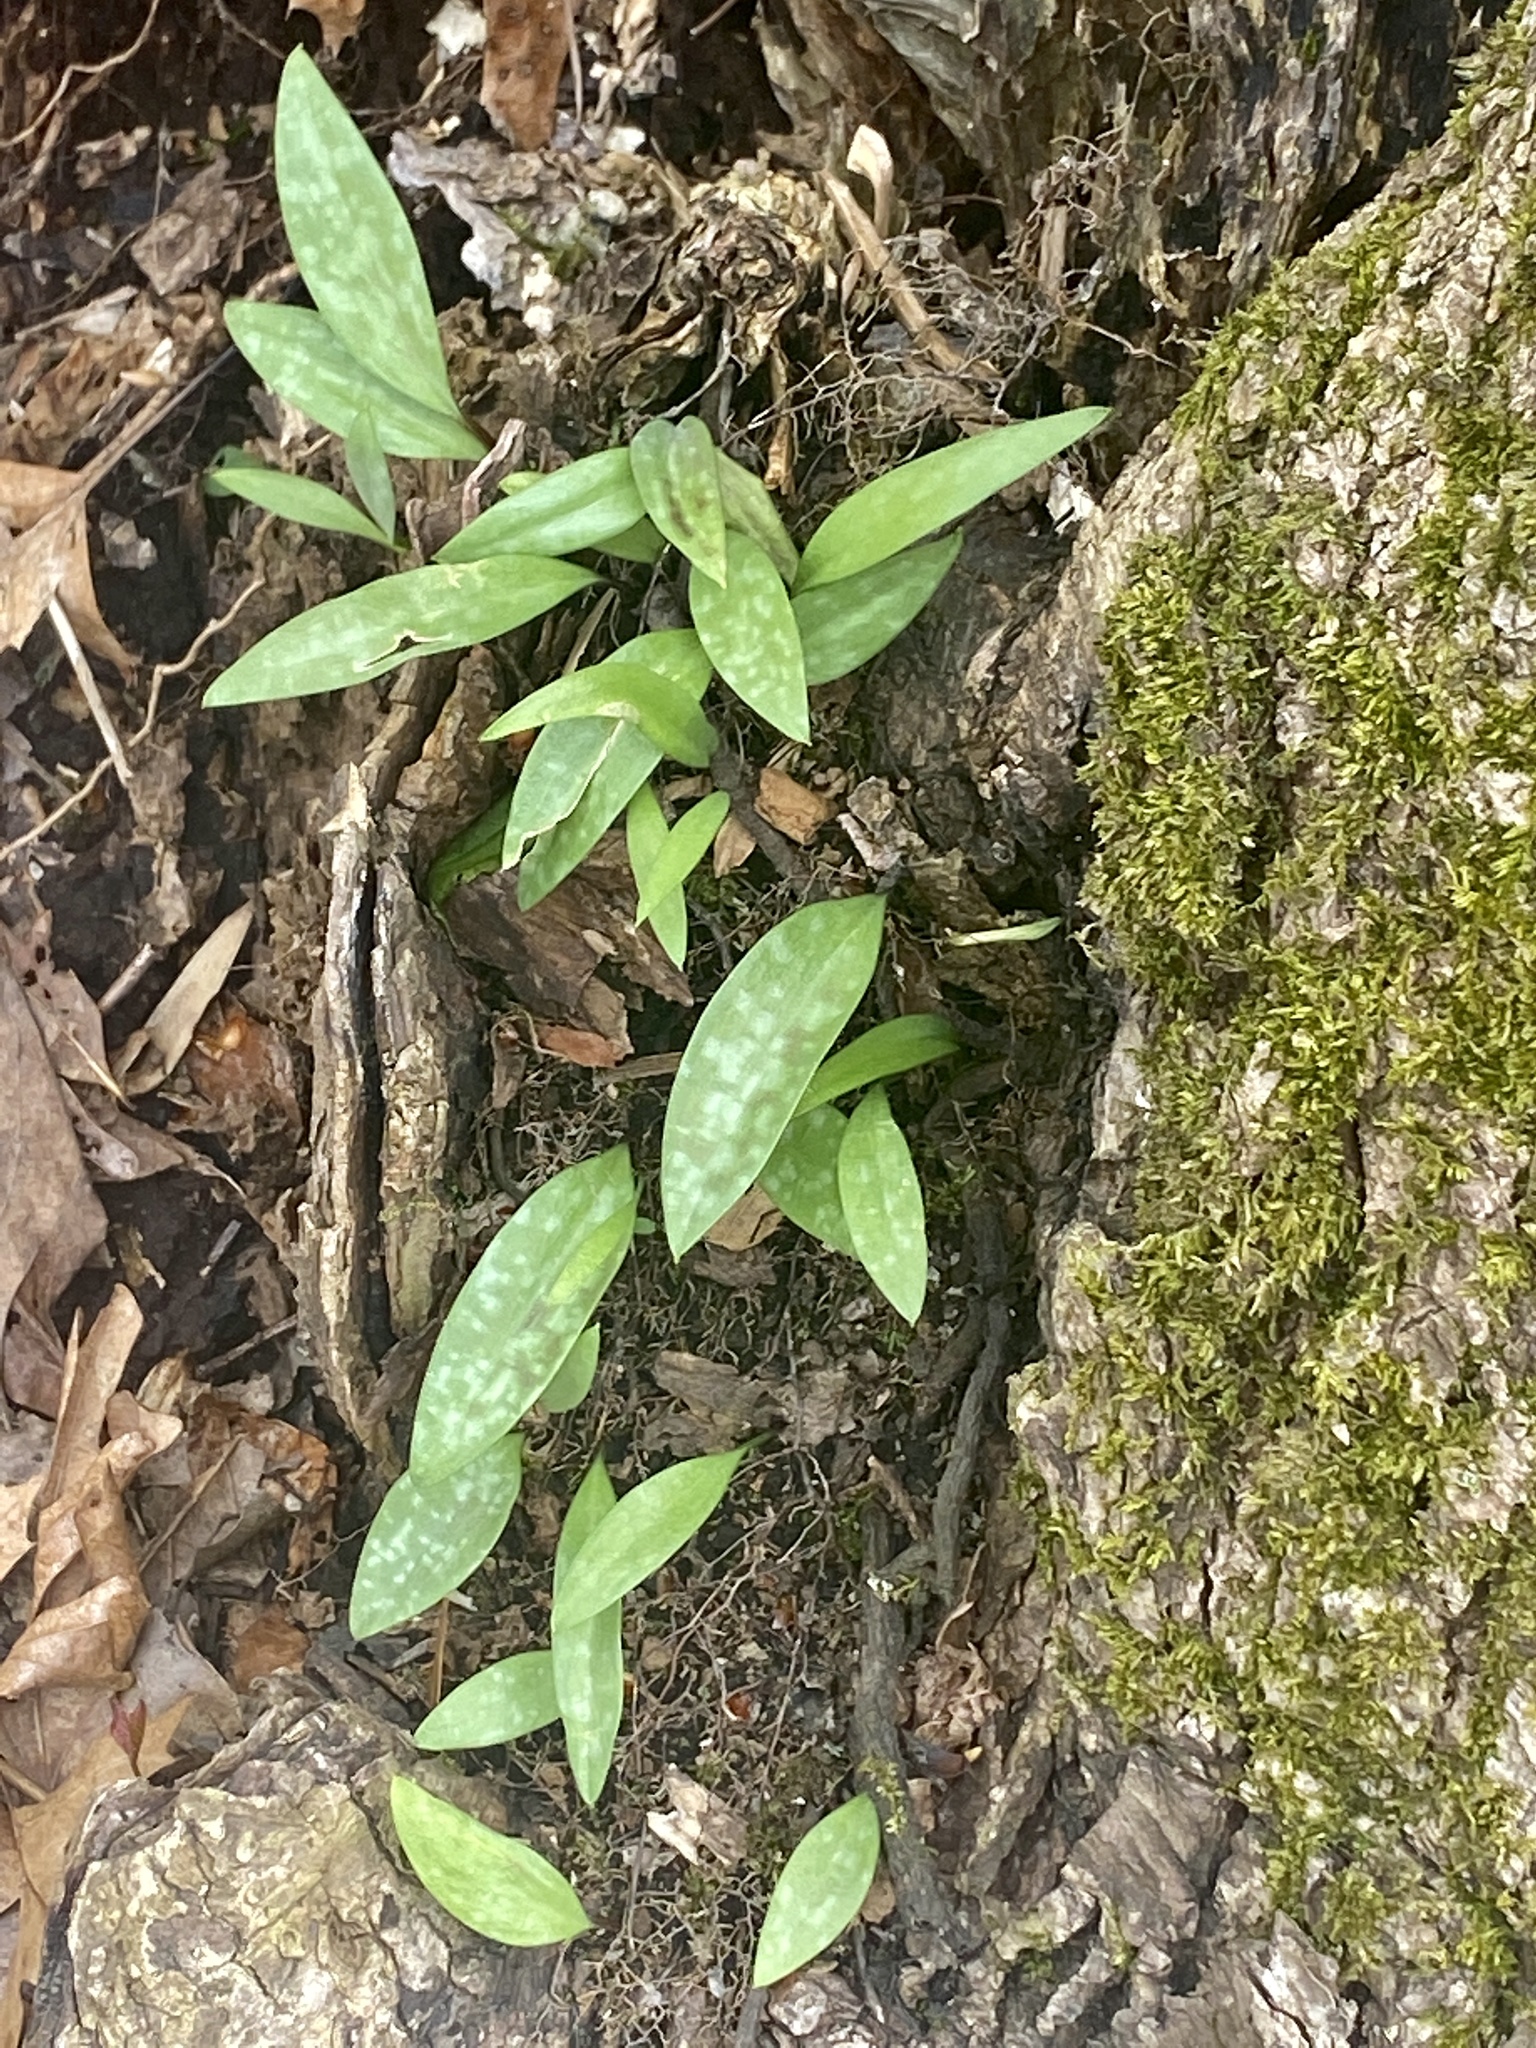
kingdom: Plantae
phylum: Tracheophyta
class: Liliopsida
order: Liliales
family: Liliaceae
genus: Erythronium
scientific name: Erythronium americanum
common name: Yellow adder's-tongue
